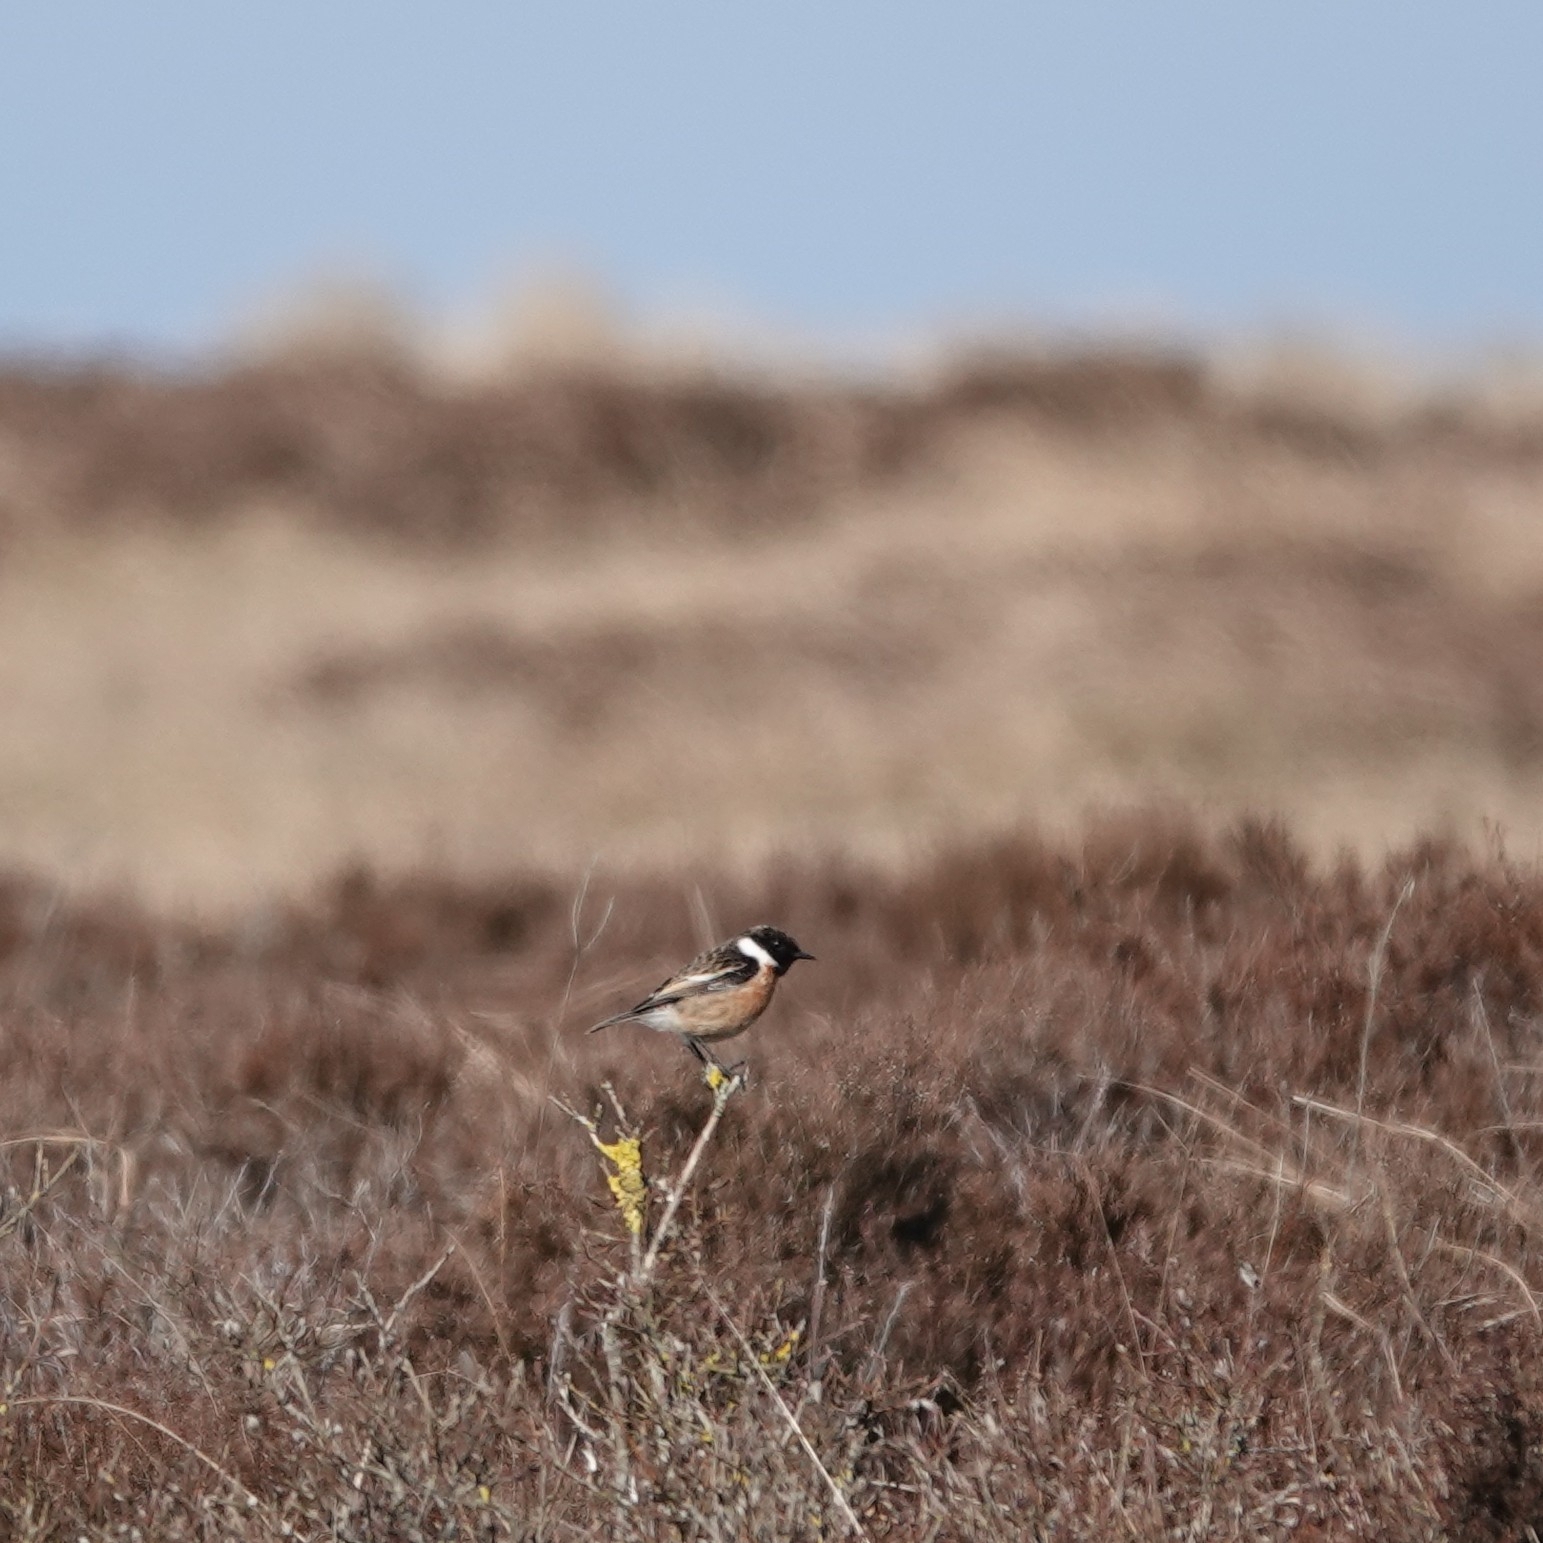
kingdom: Animalia
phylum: Chordata
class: Aves
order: Passeriformes
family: Muscicapidae
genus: Saxicola
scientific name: Saxicola rubicola
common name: European stonechat
